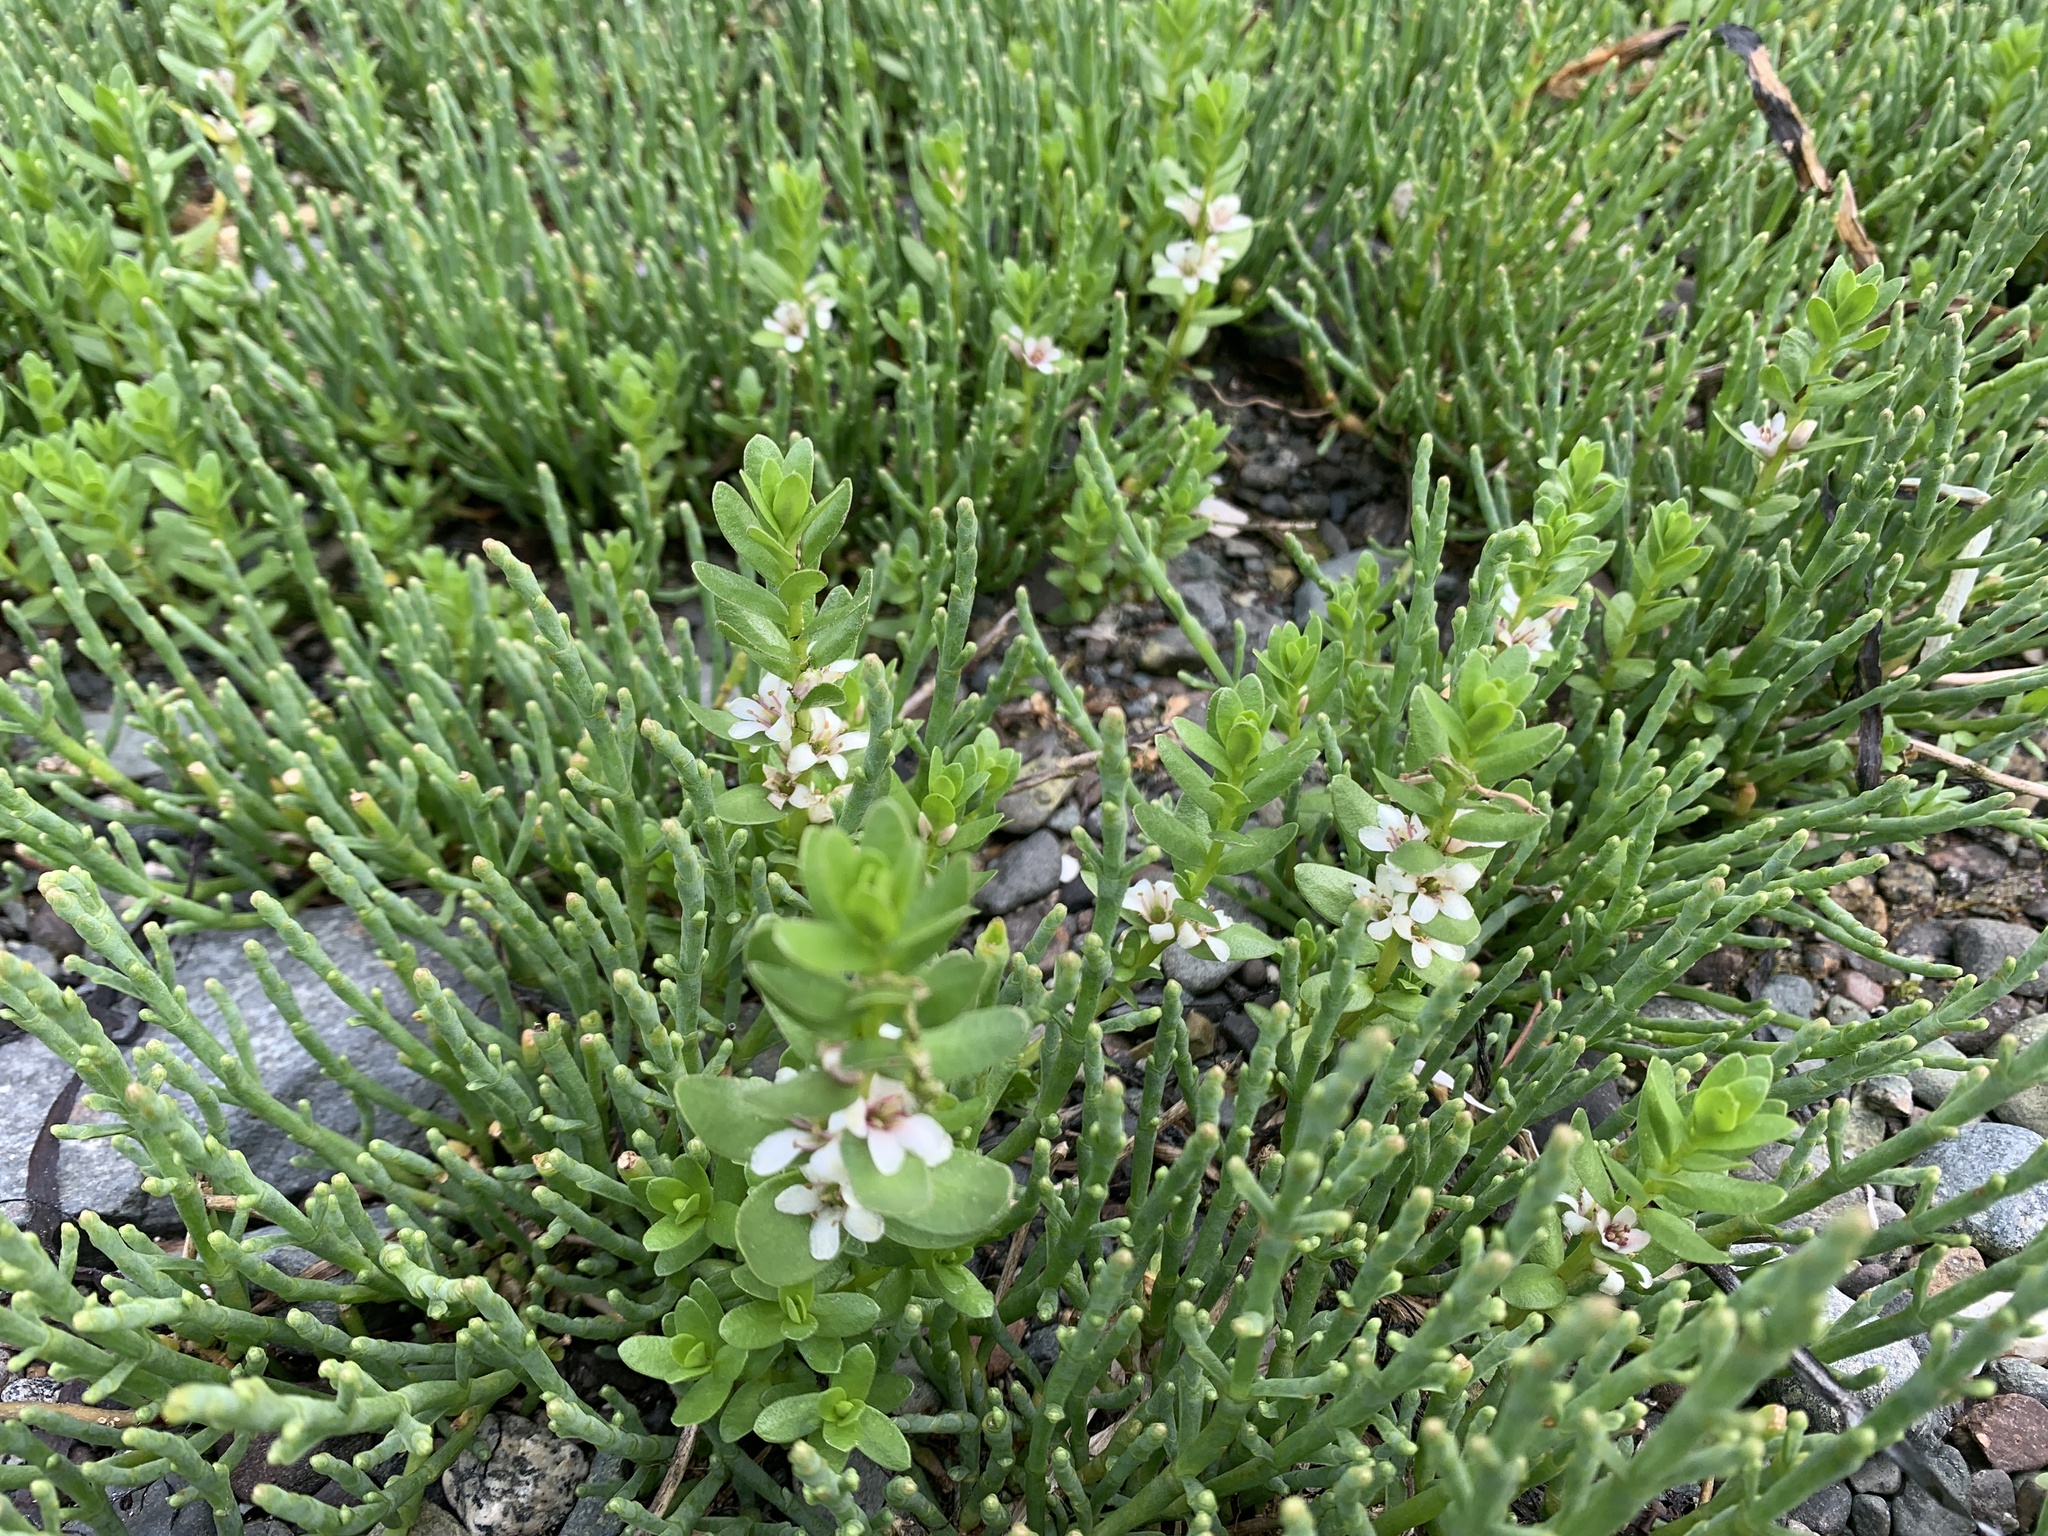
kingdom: Plantae
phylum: Tracheophyta
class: Magnoliopsida
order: Ericales
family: Primulaceae
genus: Lysimachia
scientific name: Lysimachia maritima
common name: Sea milkwort
